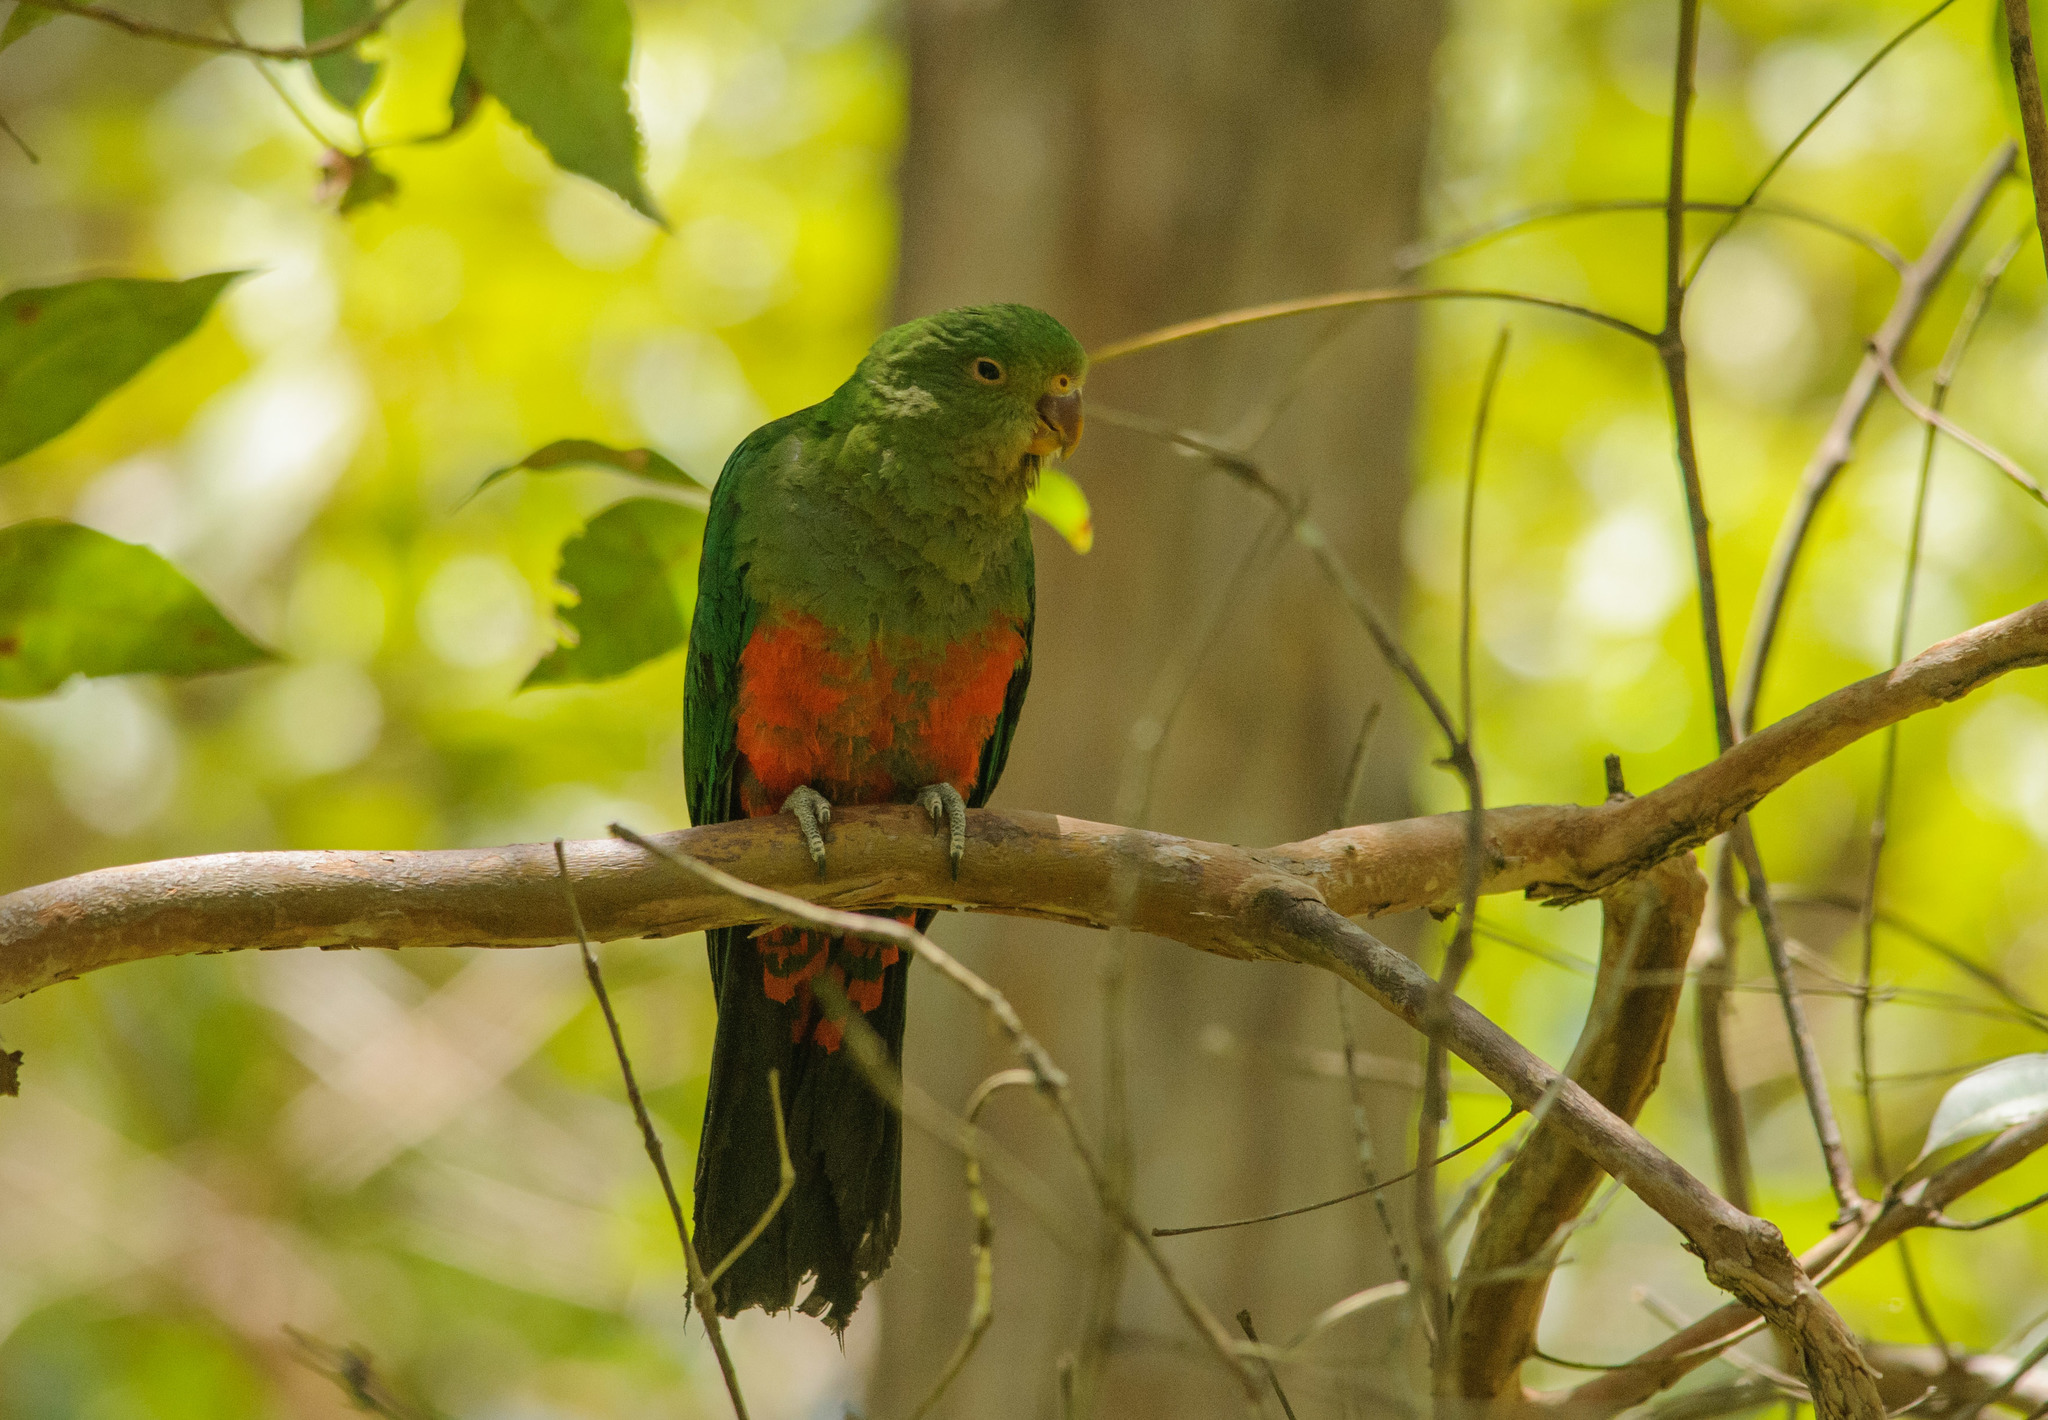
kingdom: Animalia
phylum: Chordata
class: Aves
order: Psittaciformes
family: Psittacidae
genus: Alisterus
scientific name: Alisterus scapularis
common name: Australian king parrot
